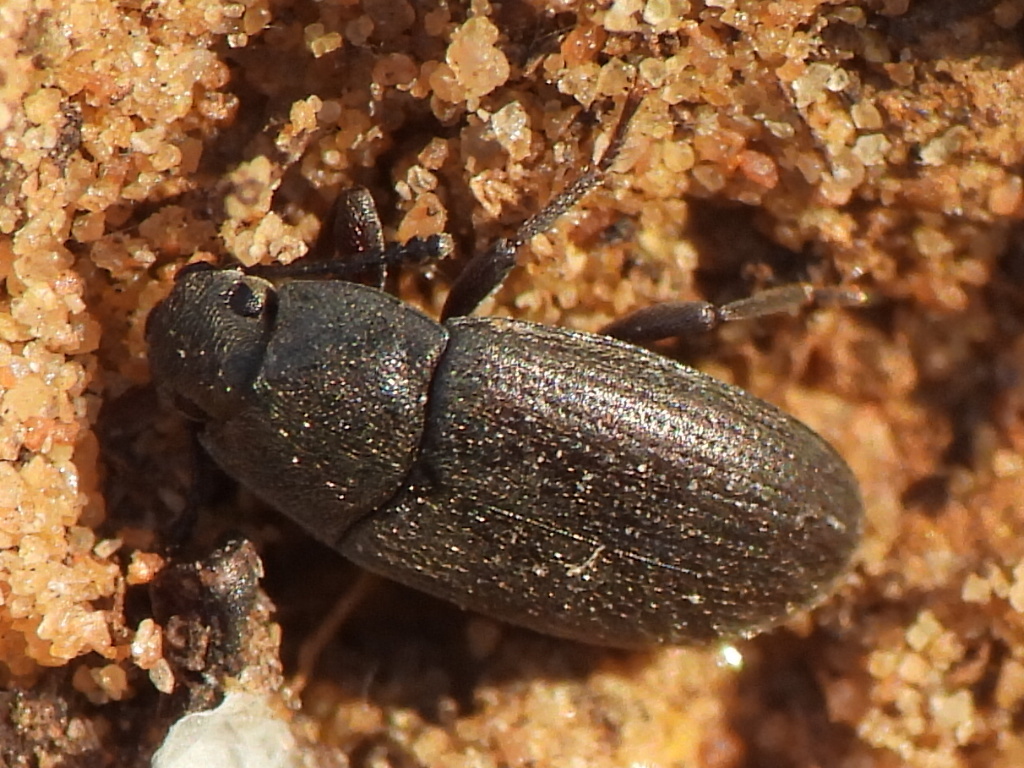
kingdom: Animalia
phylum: Arthropoda
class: Insecta
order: Coleoptera
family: Tenebrionidae
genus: Blapstinus
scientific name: Blapstinus fortis
